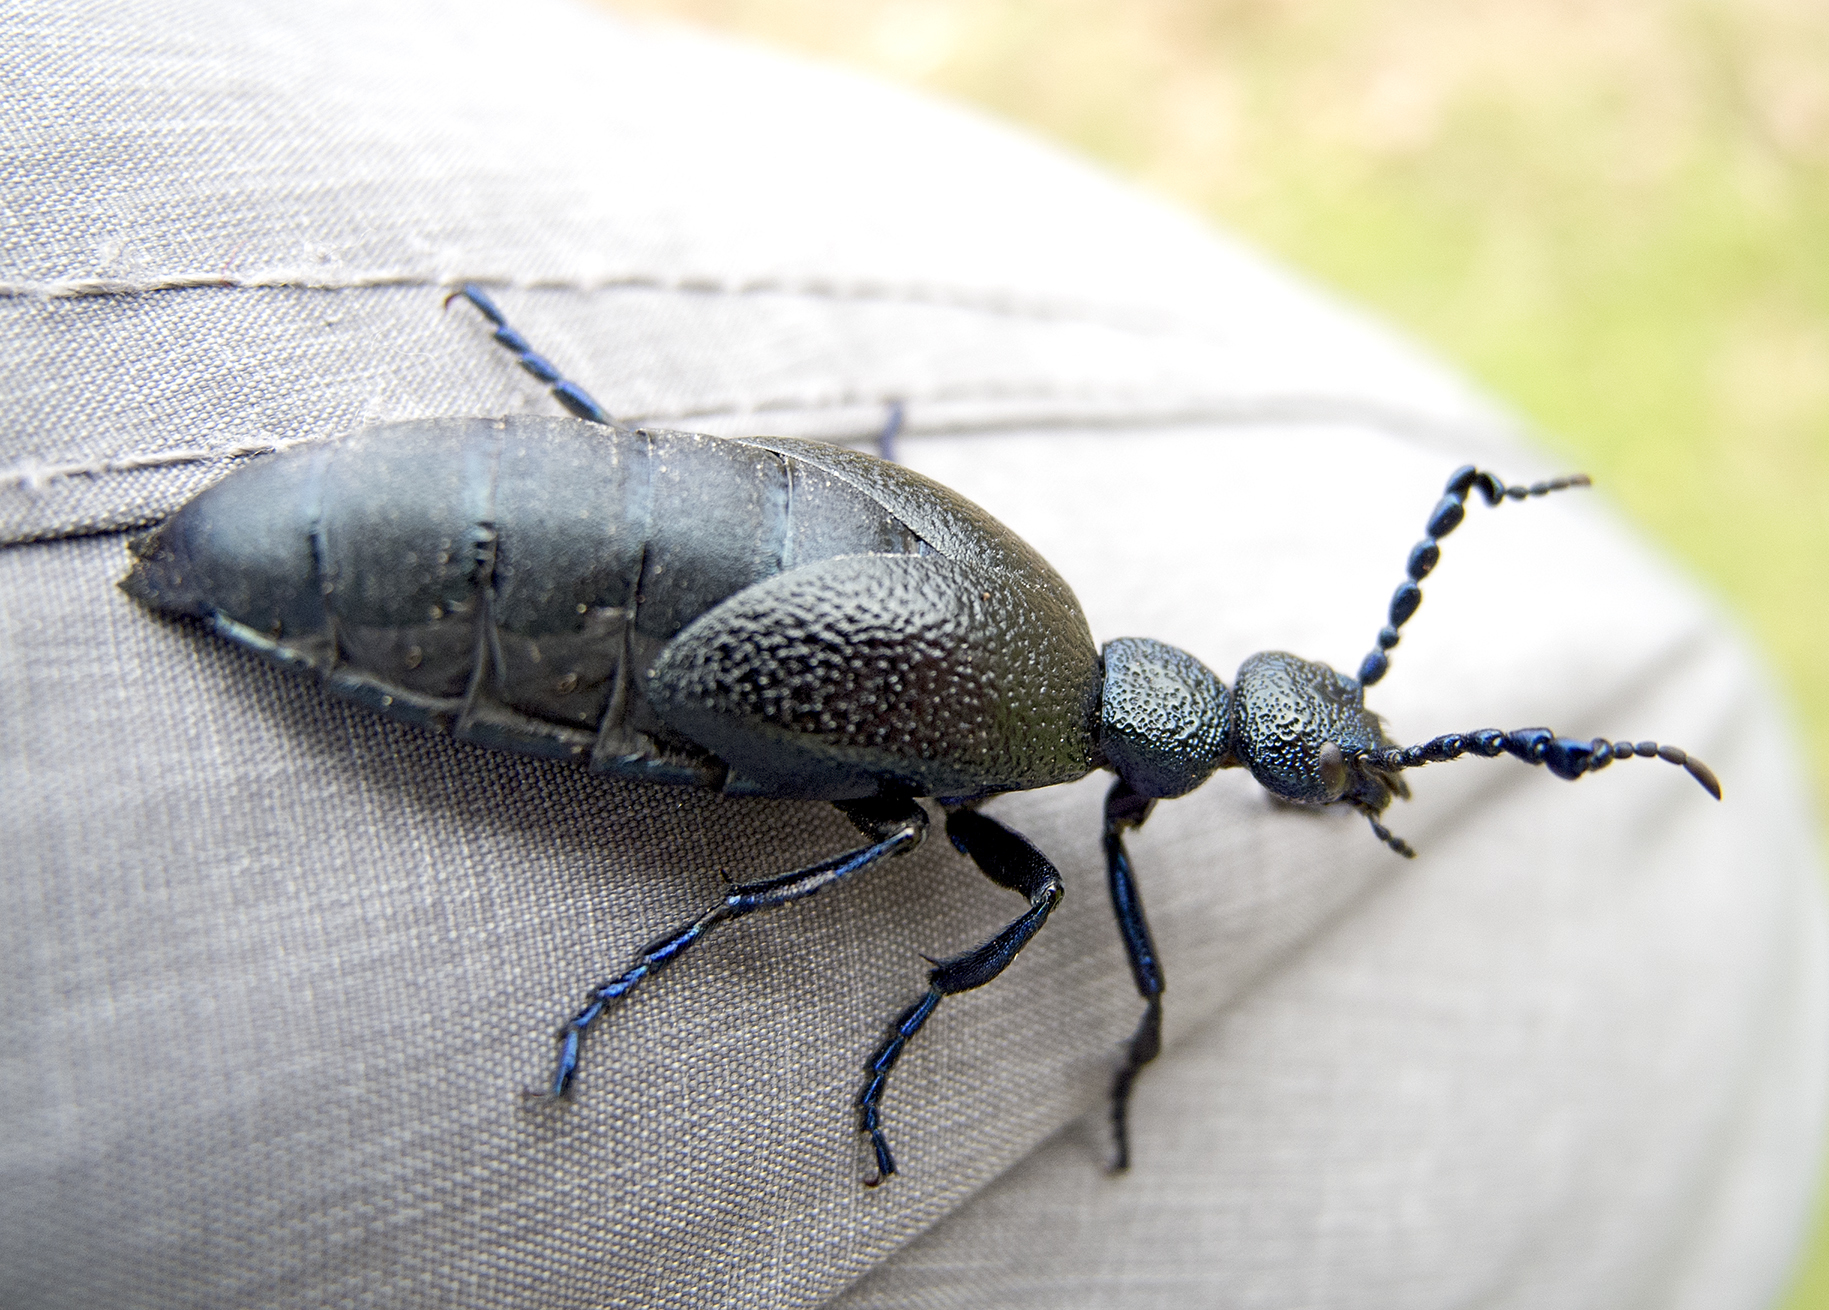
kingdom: Animalia
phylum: Arthropoda
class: Insecta
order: Coleoptera
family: Meloidae
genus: Meloe
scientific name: Meloe proscarabaeus
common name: Black oil-beetle
